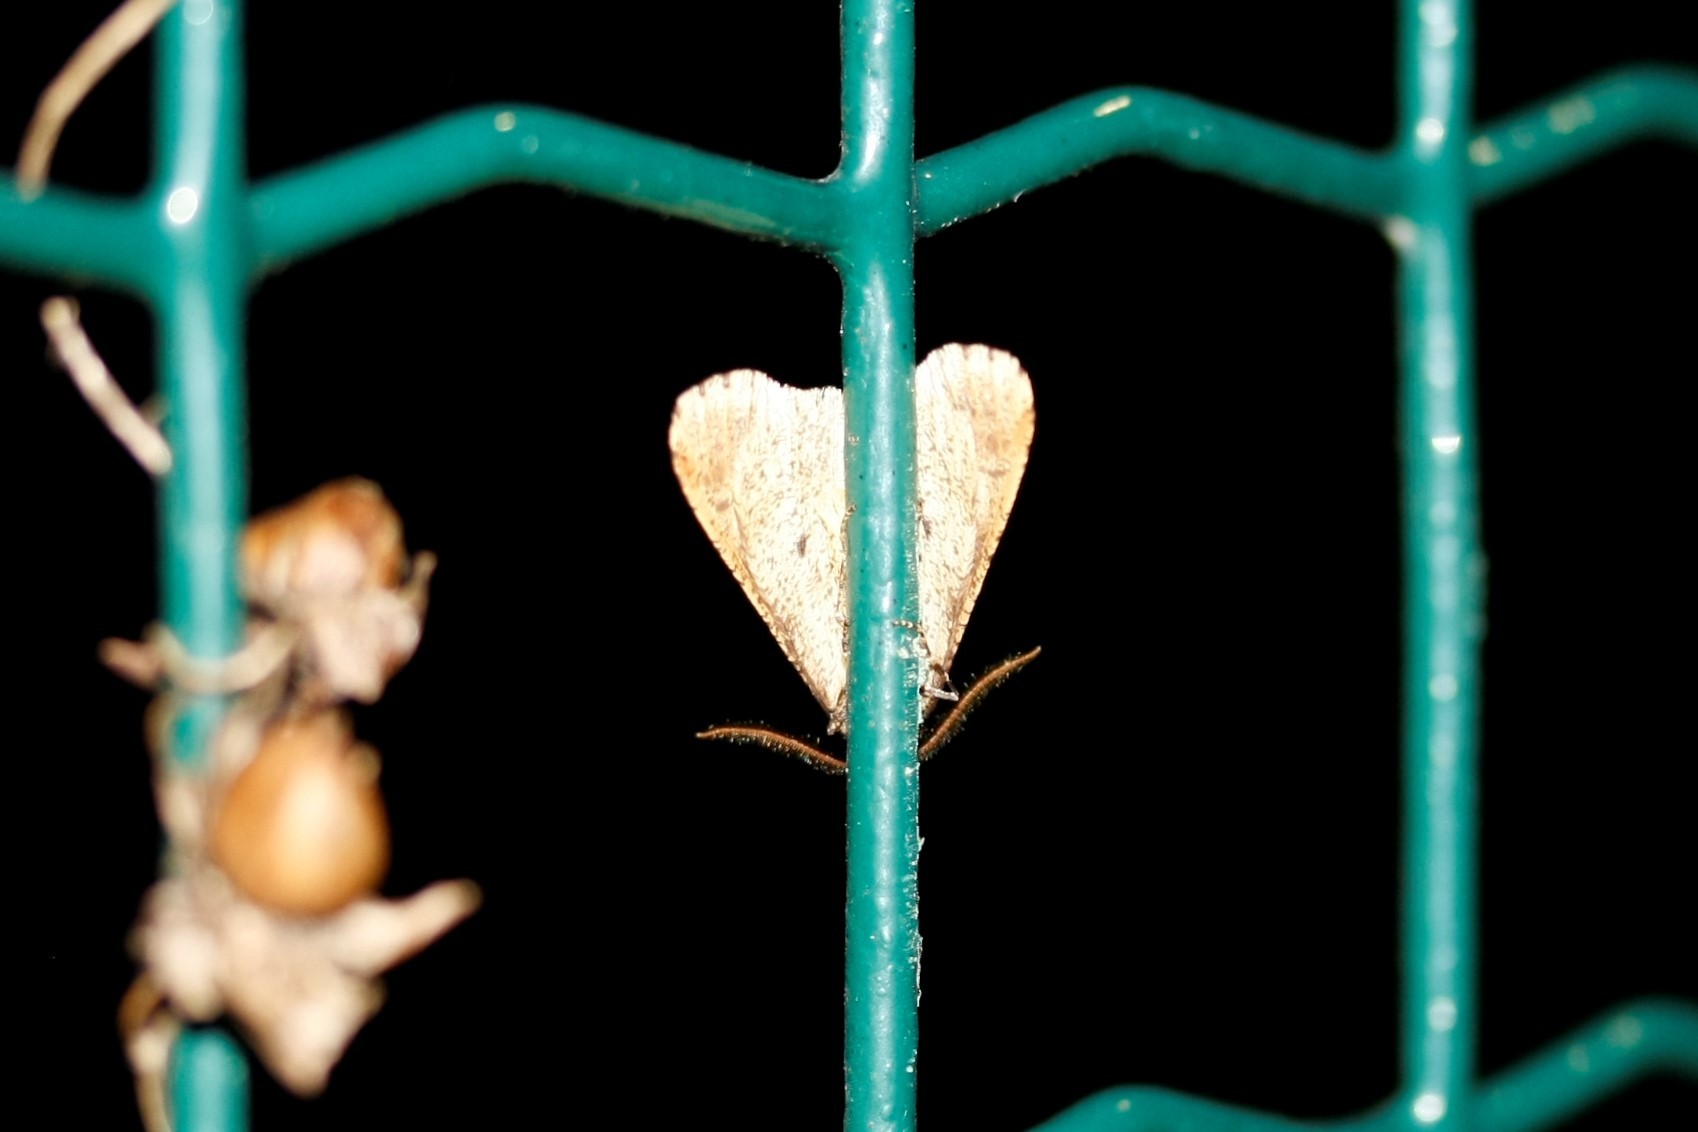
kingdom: Animalia
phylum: Arthropoda
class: Insecta
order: Lepidoptera
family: Geometridae
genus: Erannis
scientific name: Erannis defoliaria
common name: Mottled umber
